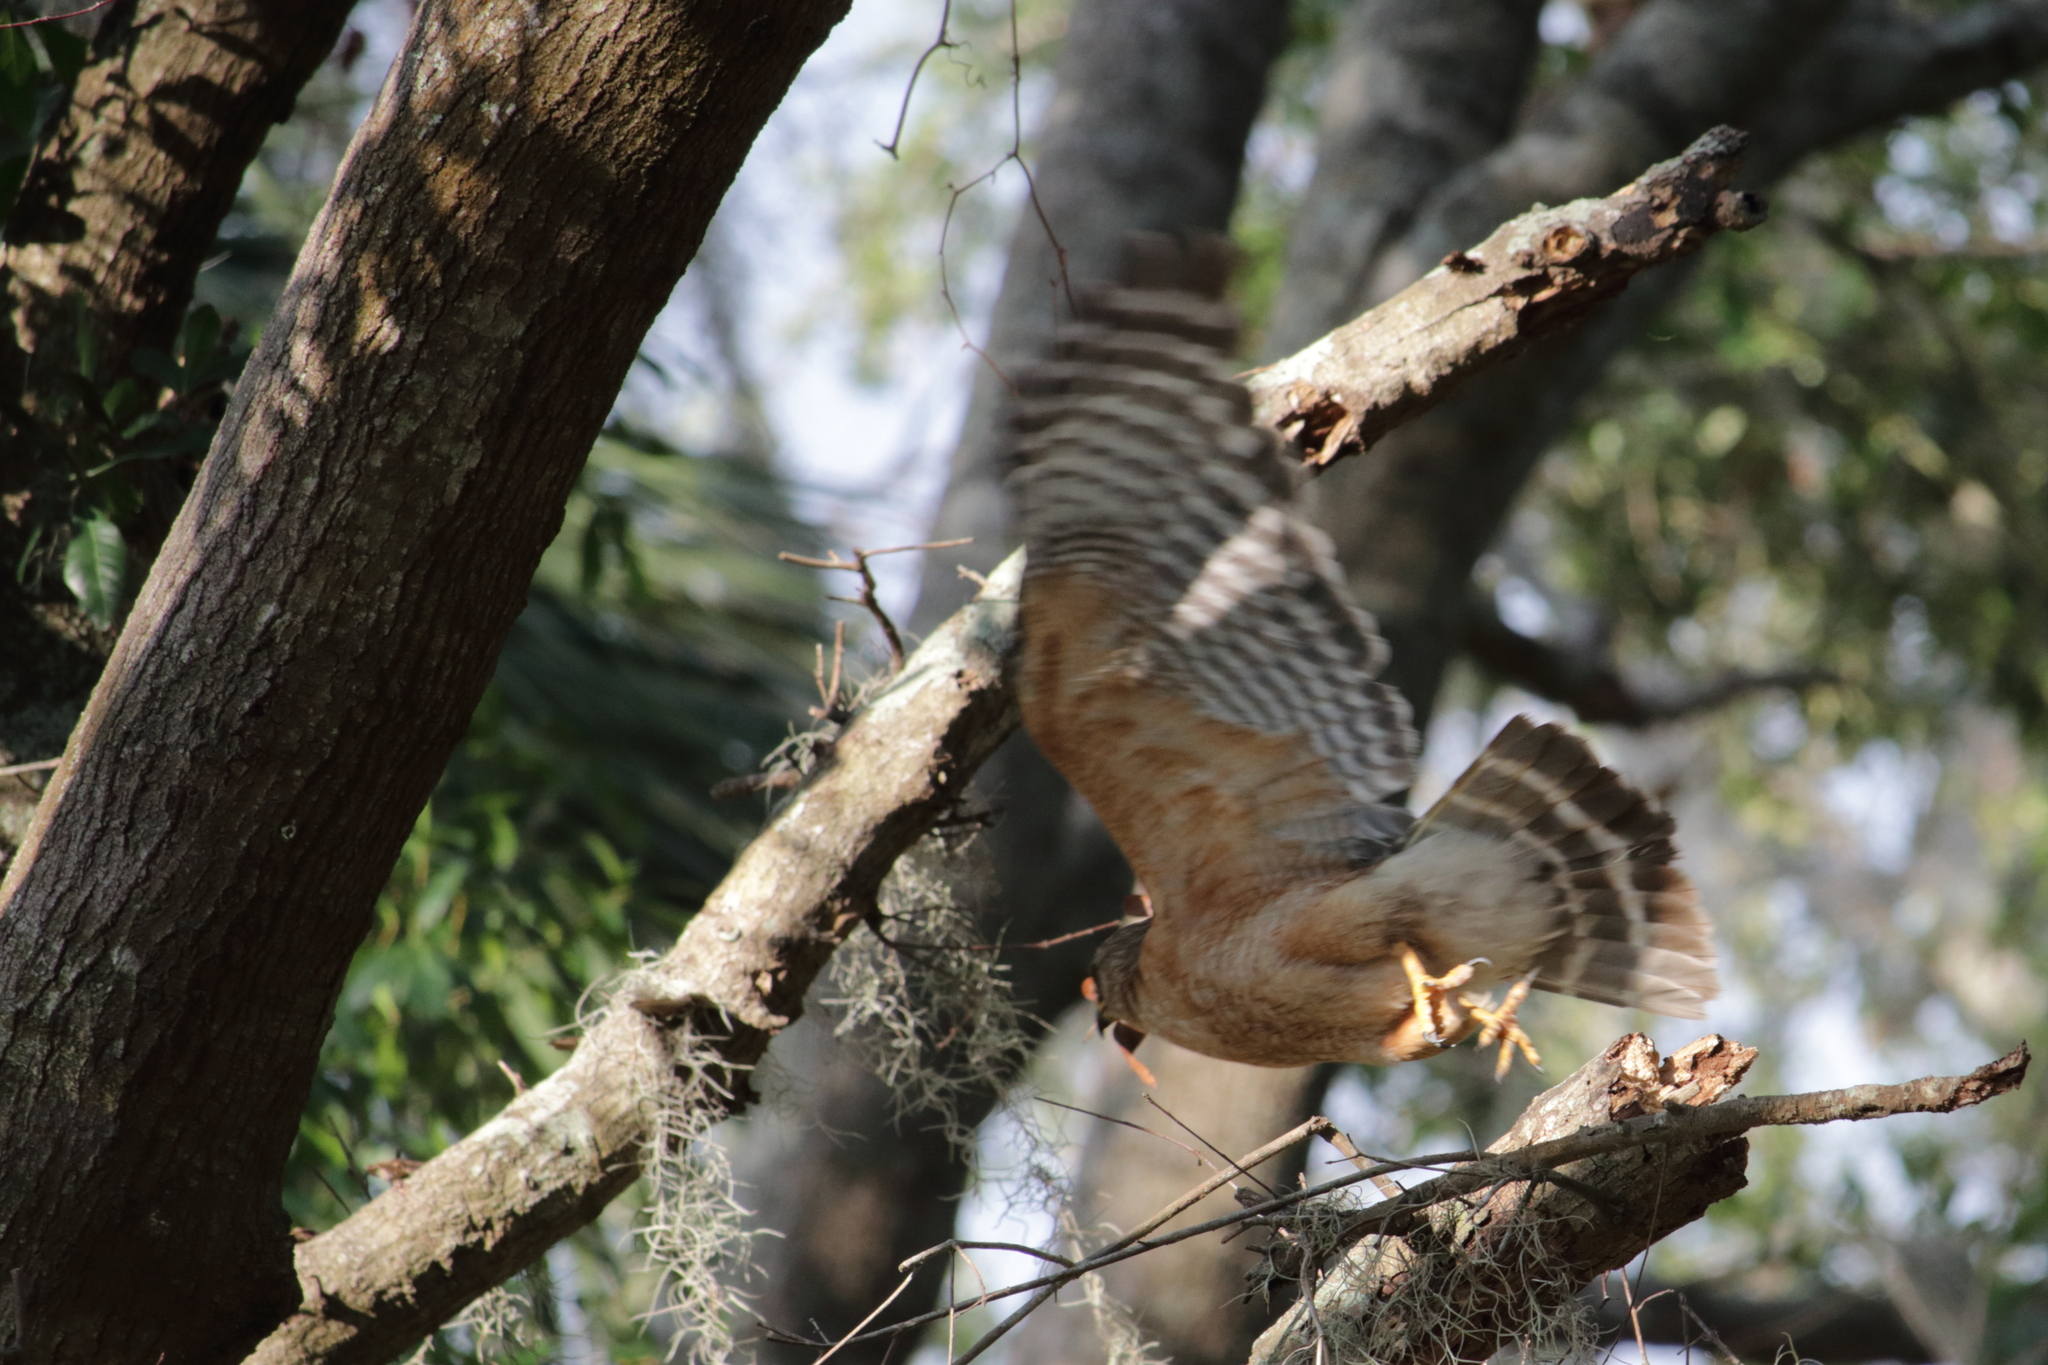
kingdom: Animalia
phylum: Chordata
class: Aves
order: Accipitriformes
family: Accipitridae
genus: Buteo
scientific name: Buteo lineatus
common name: Red-shouldered hawk
